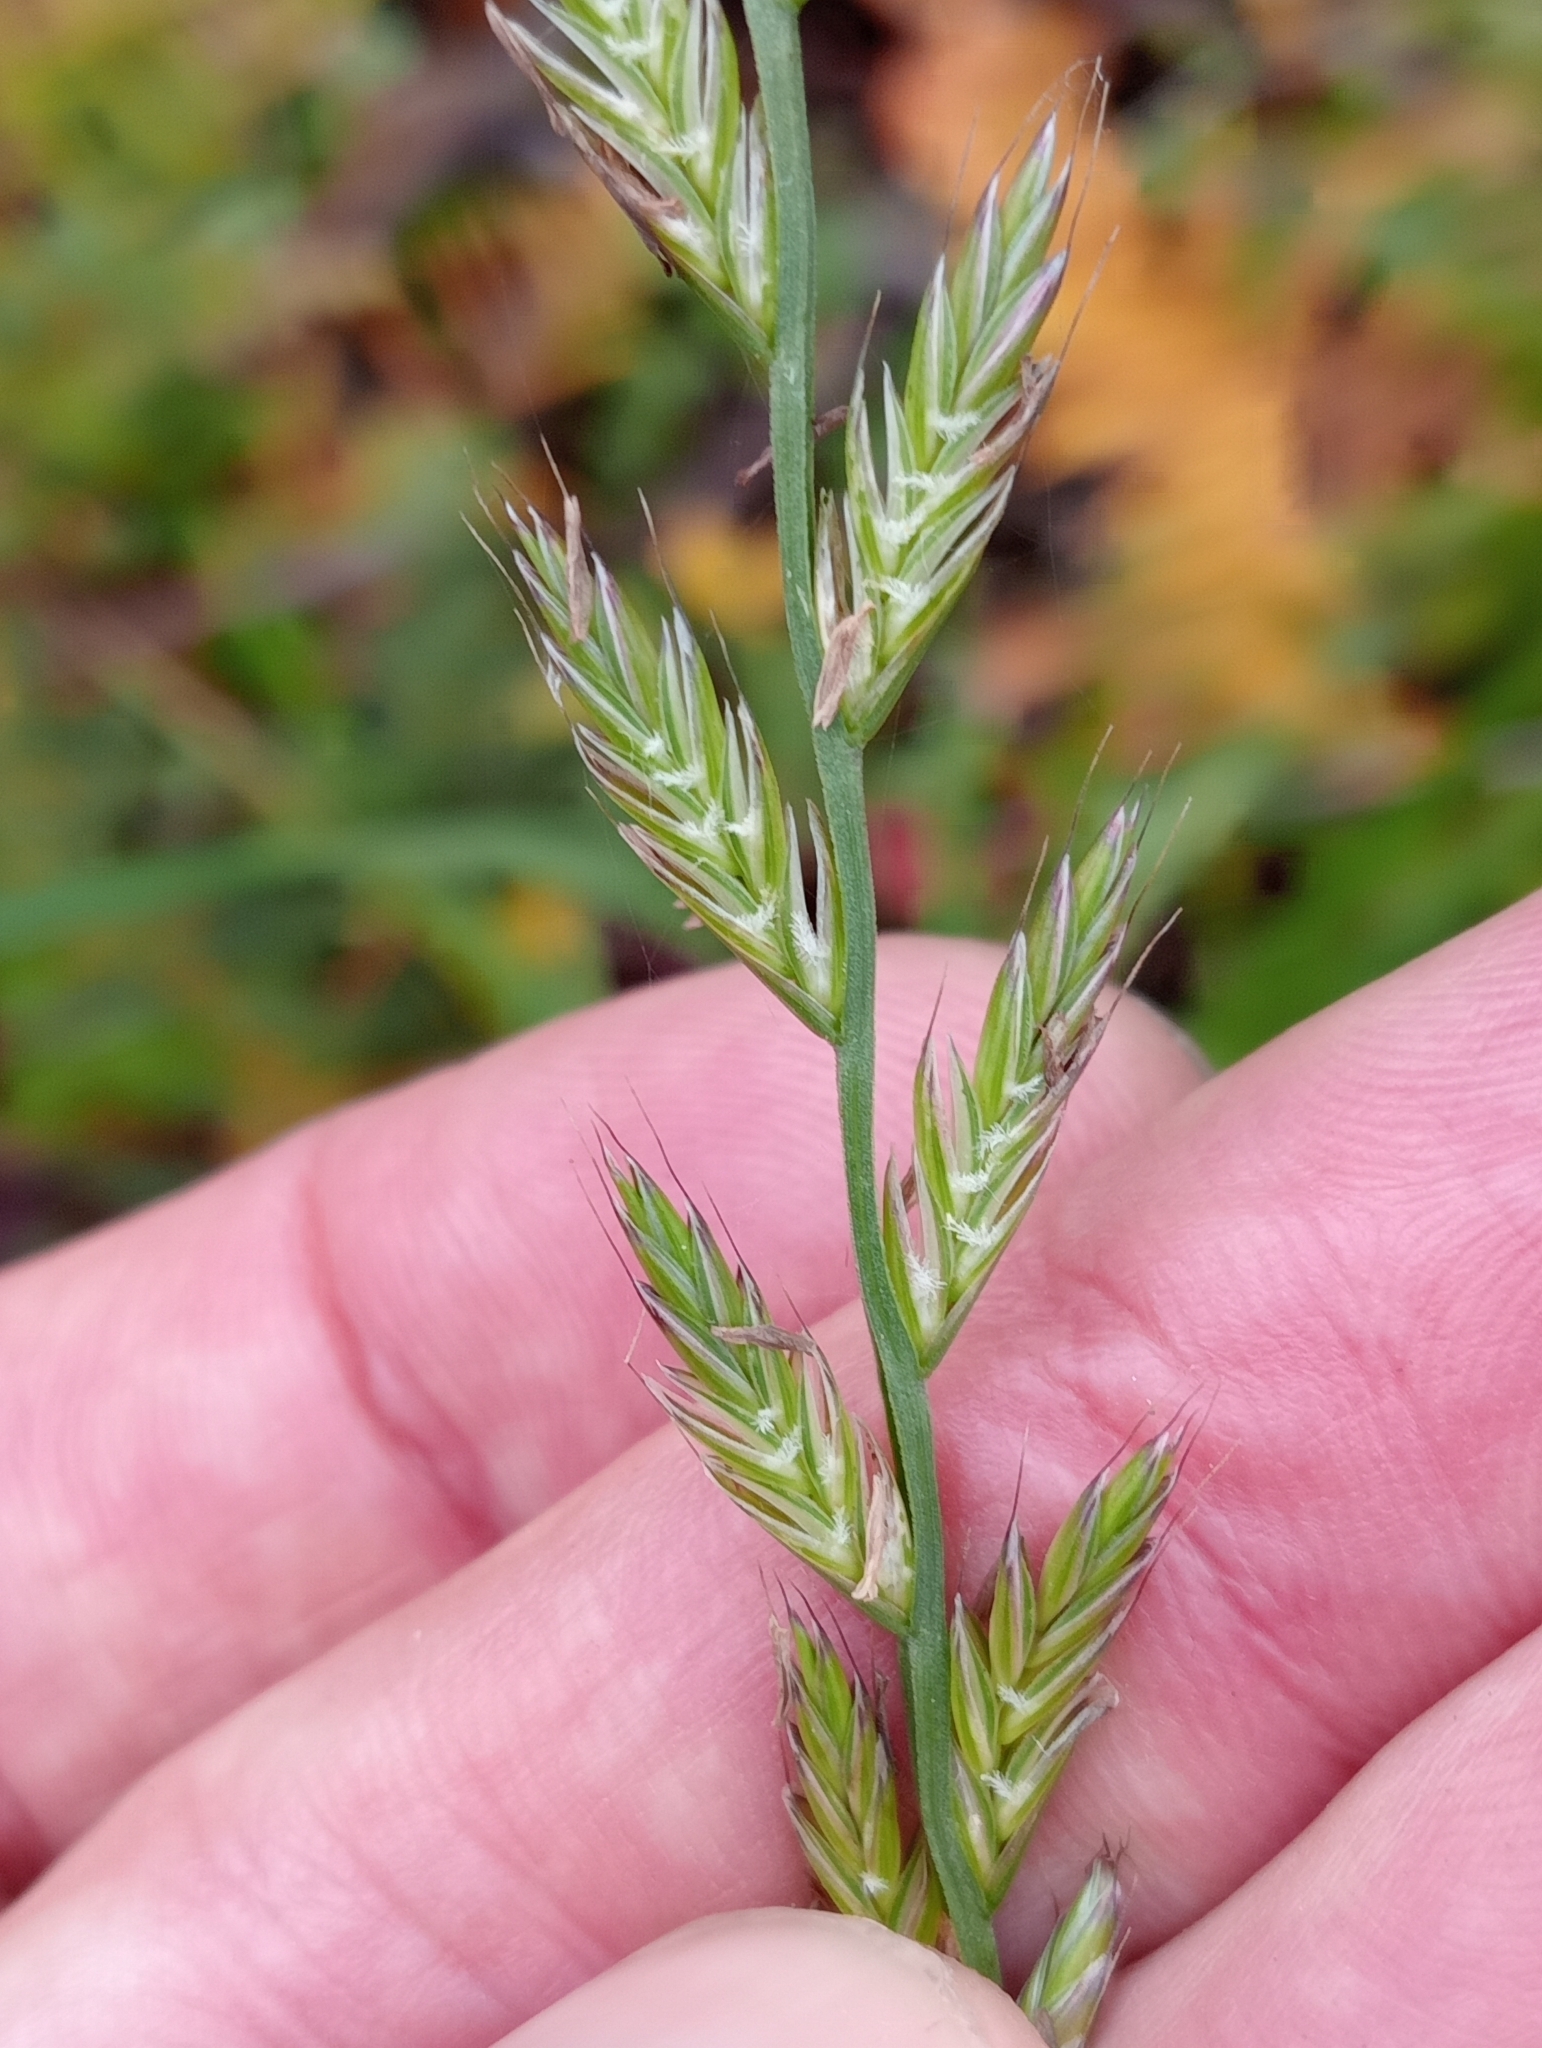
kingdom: Plantae
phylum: Tracheophyta
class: Liliopsida
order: Poales
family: Poaceae
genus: Lolium
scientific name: Lolium multiflorum
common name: Annual ryegrass
